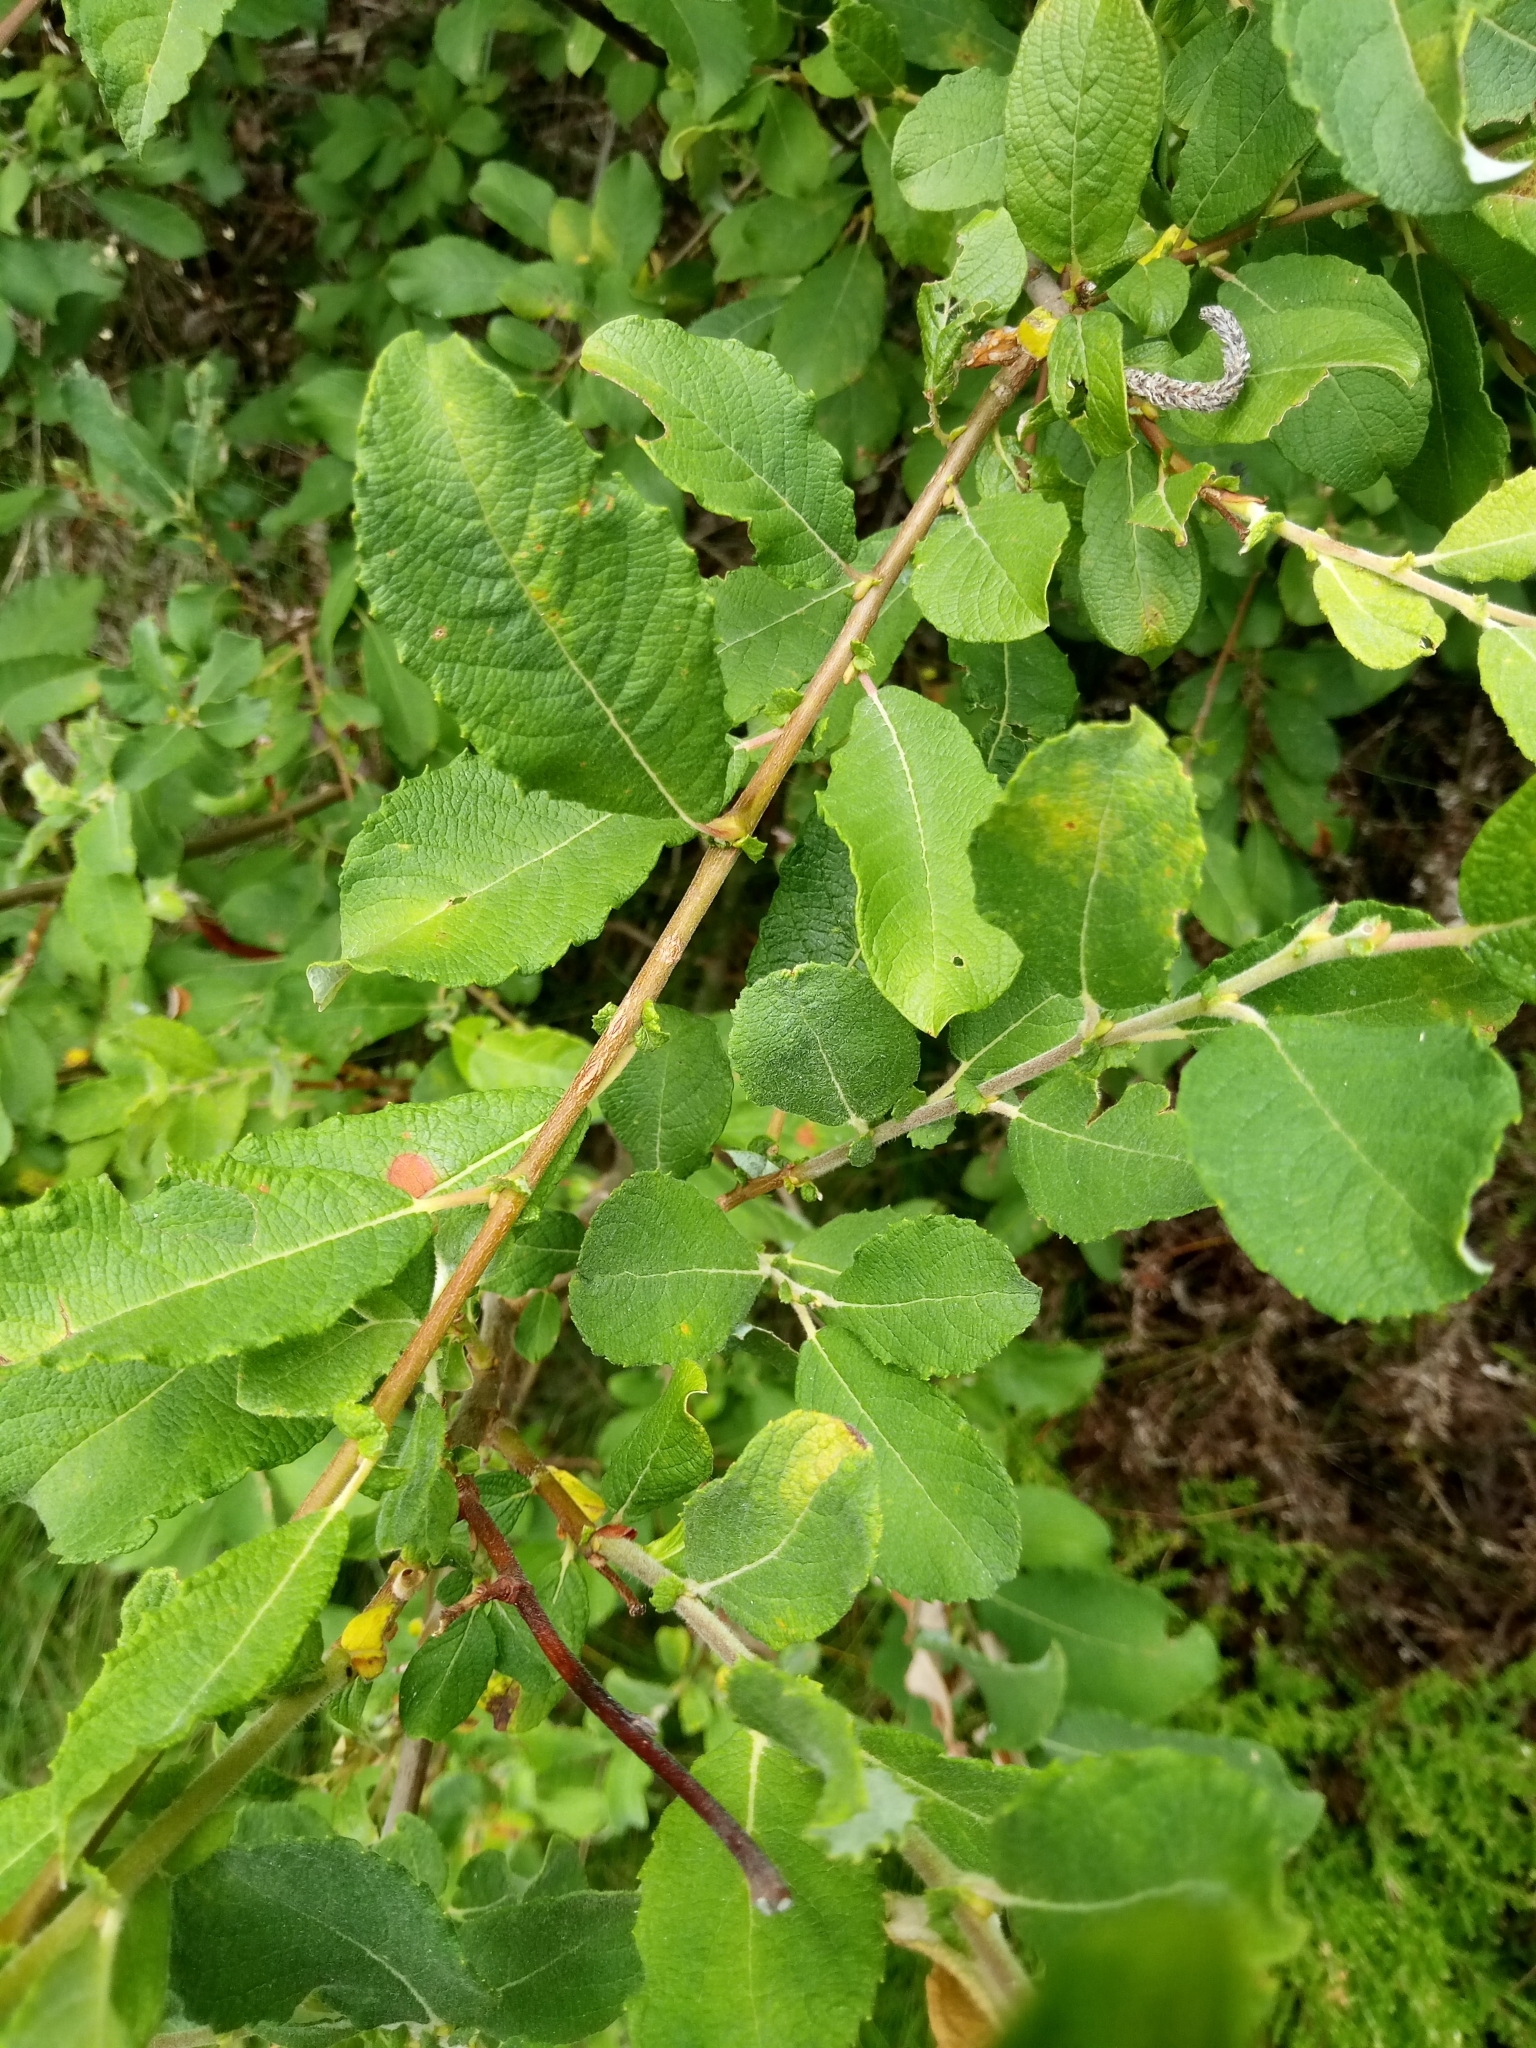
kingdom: Plantae
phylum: Tracheophyta
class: Magnoliopsida
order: Malpighiales
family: Salicaceae
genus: Salix
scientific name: Salix aurita
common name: Eared willow
